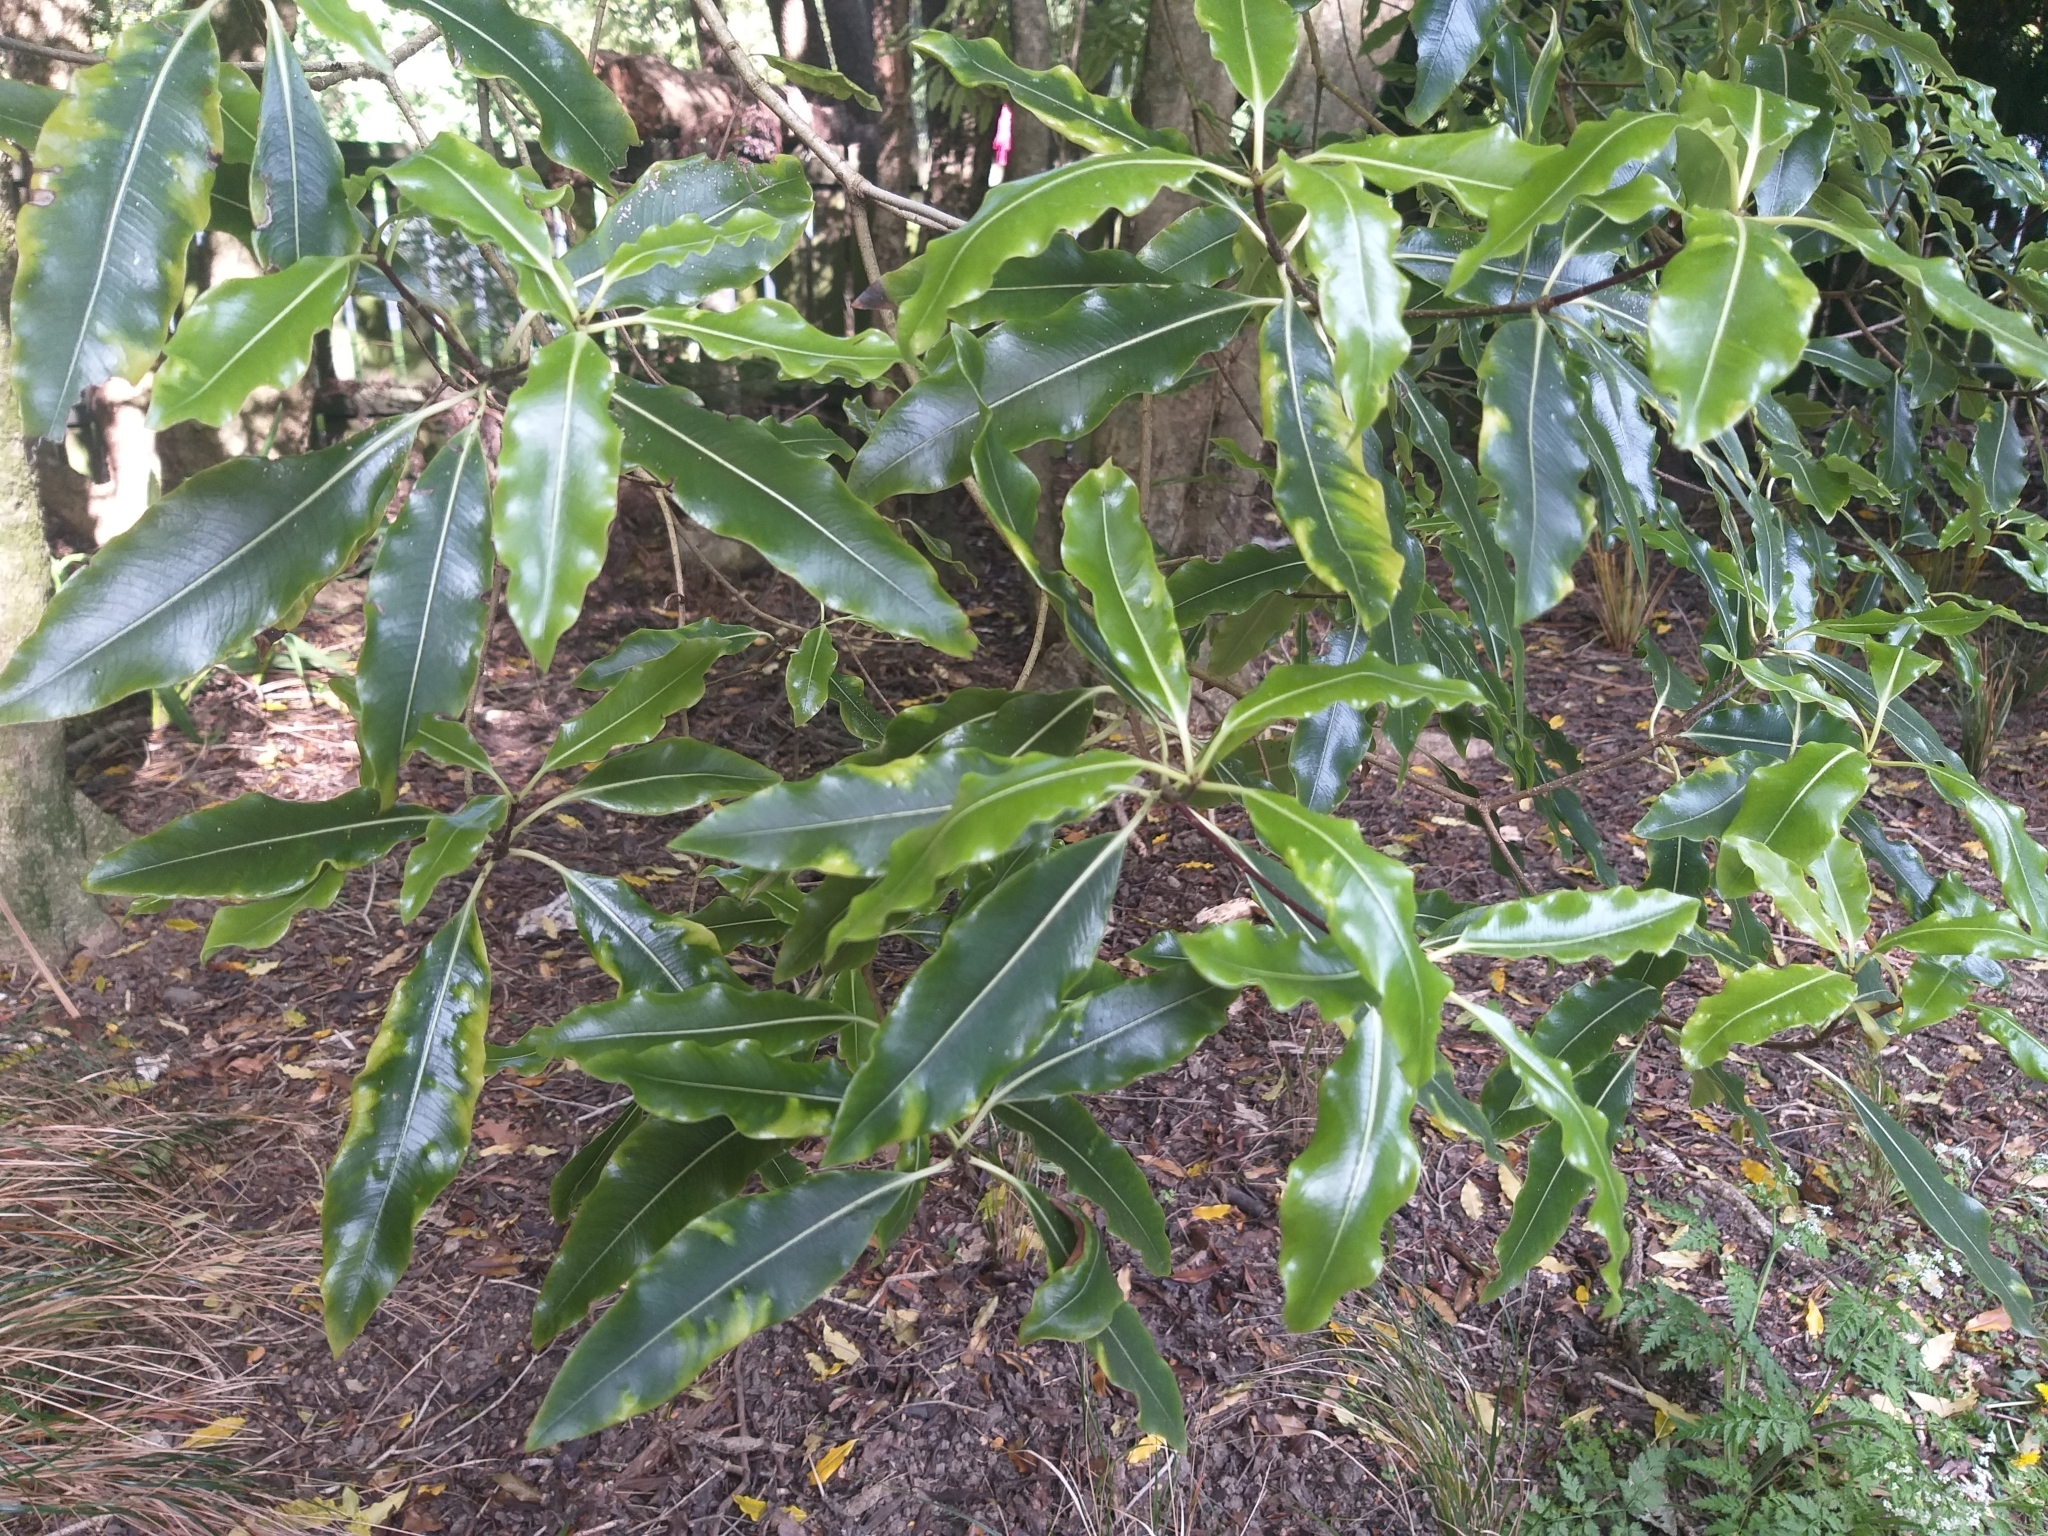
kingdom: Plantae
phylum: Tracheophyta
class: Magnoliopsida
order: Apiales
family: Pittosporaceae
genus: Pittosporum
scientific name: Pittosporum eugenioides
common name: Lemonwood
